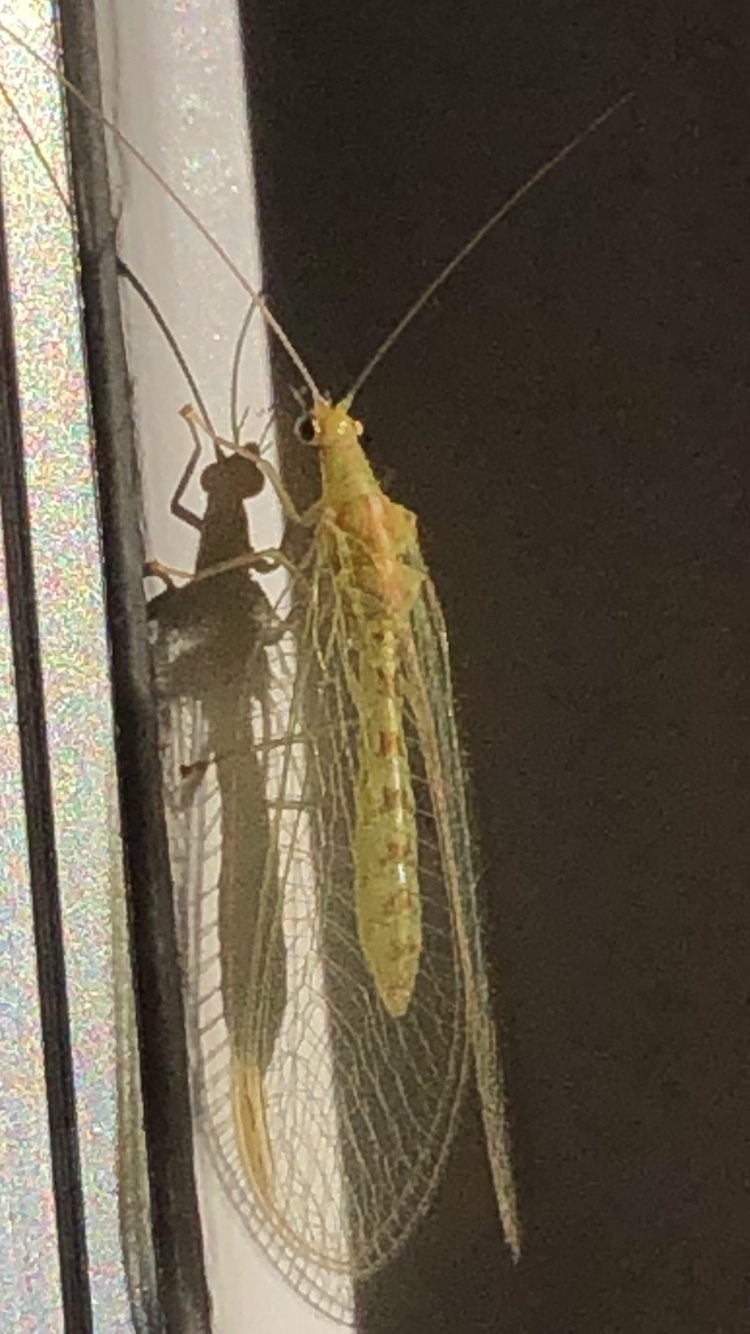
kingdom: Animalia
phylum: Arthropoda
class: Insecta
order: Neuroptera
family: Chrysopidae
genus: Chrysoperla
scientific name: Chrysoperla
